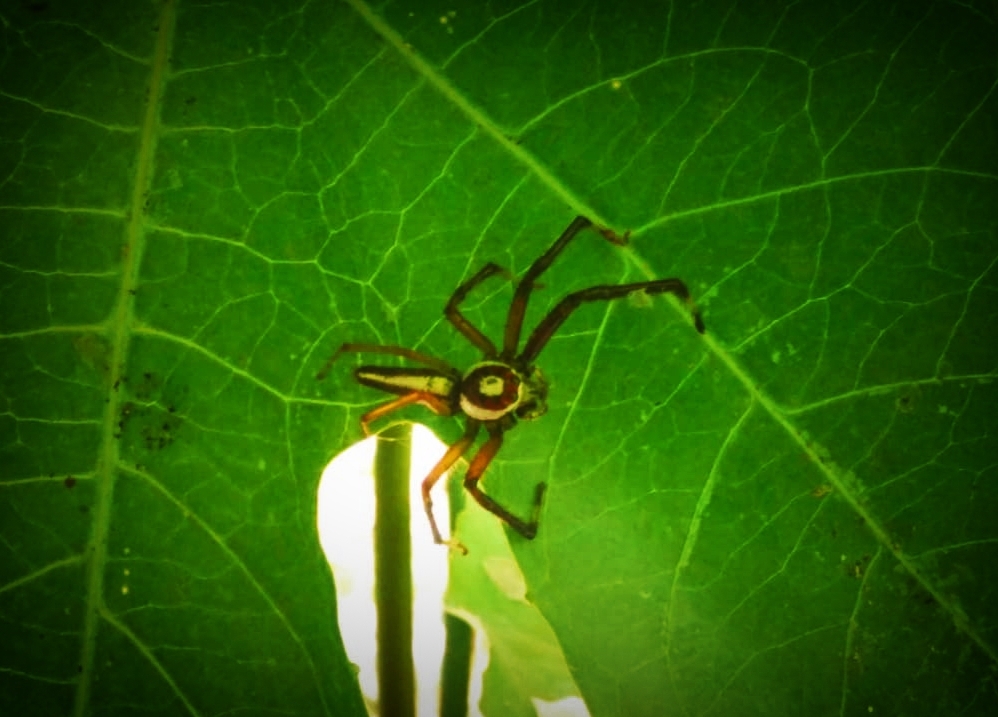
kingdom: Animalia
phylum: Arthropoda
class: Arachnida
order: Araneae
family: Salticidae
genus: Telamonia
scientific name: Telamonia dimidiata
